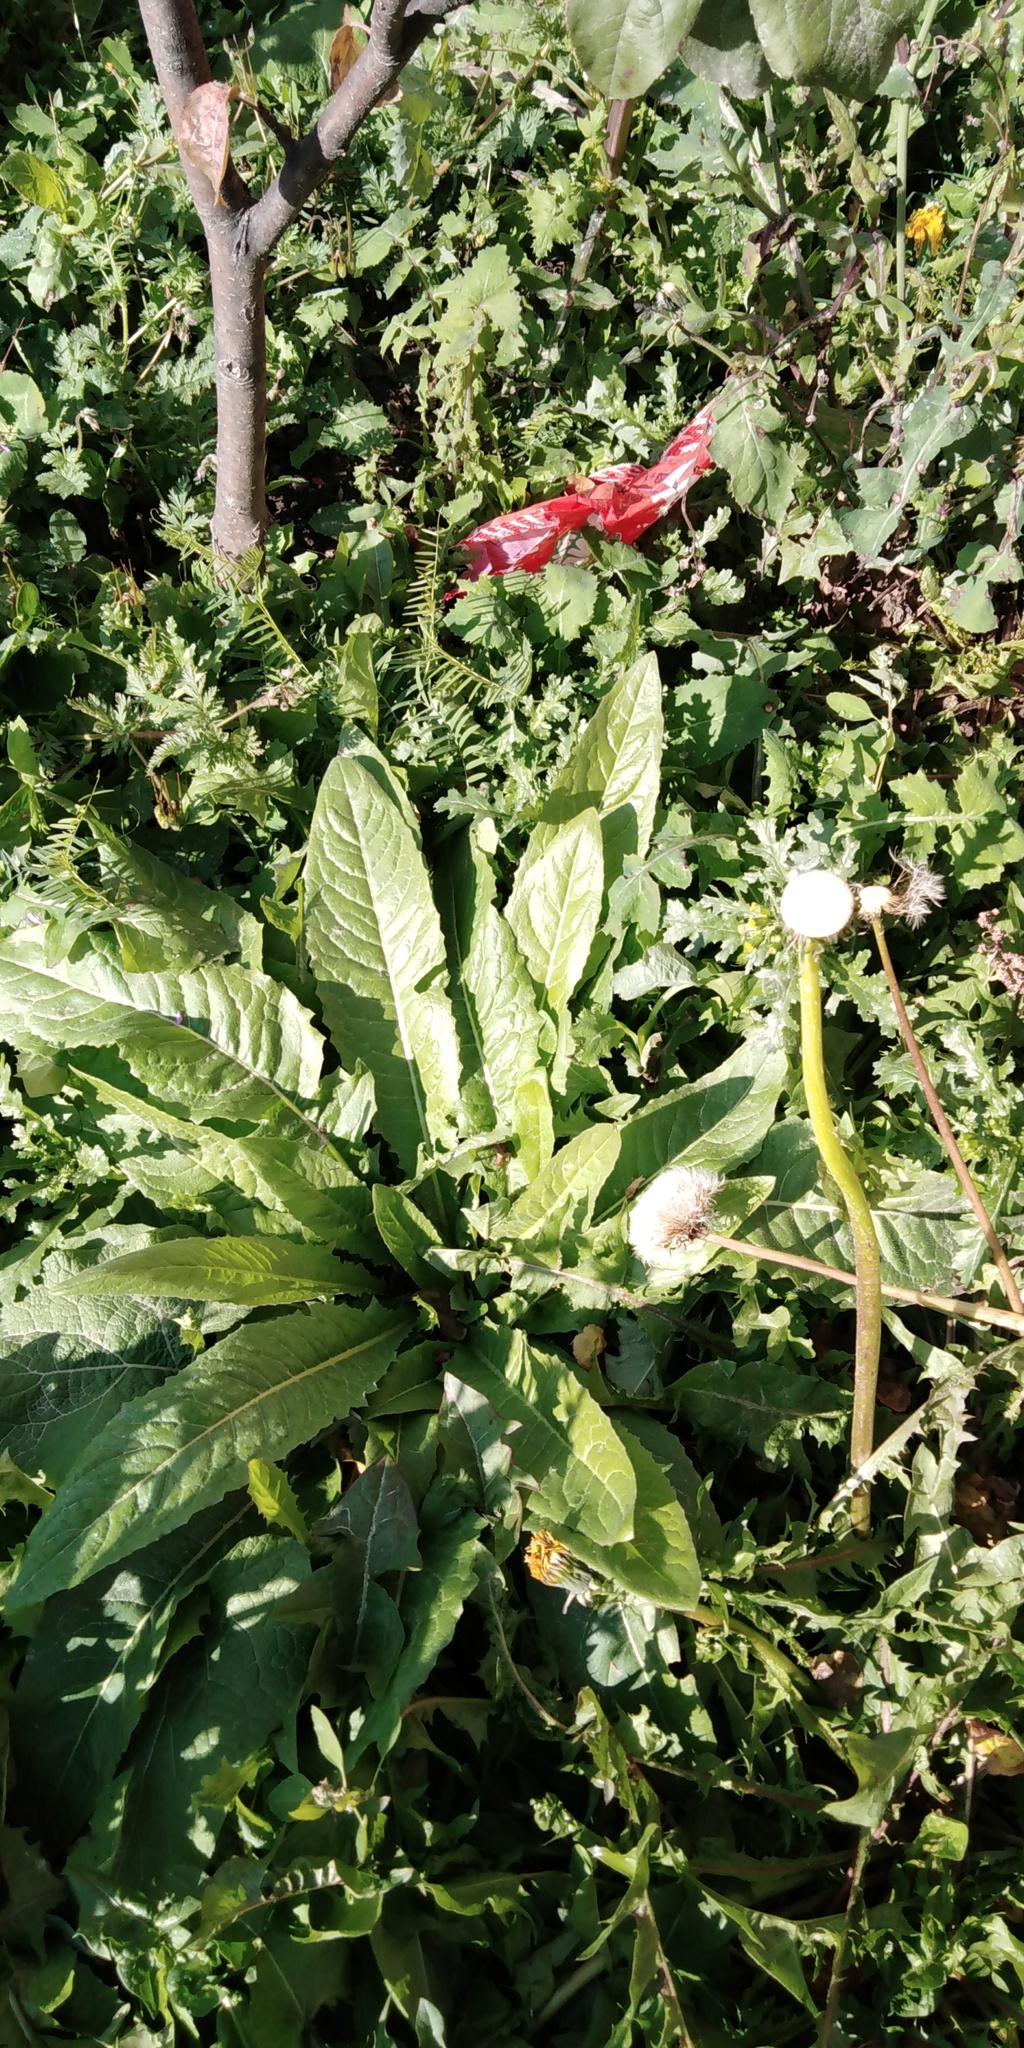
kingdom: Plantae
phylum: Tracheophyta
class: Magnoliopsida
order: Brassicales
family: Brassicaceae
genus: Bunias
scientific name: Bunias orientalis
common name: Warty-cabbage
